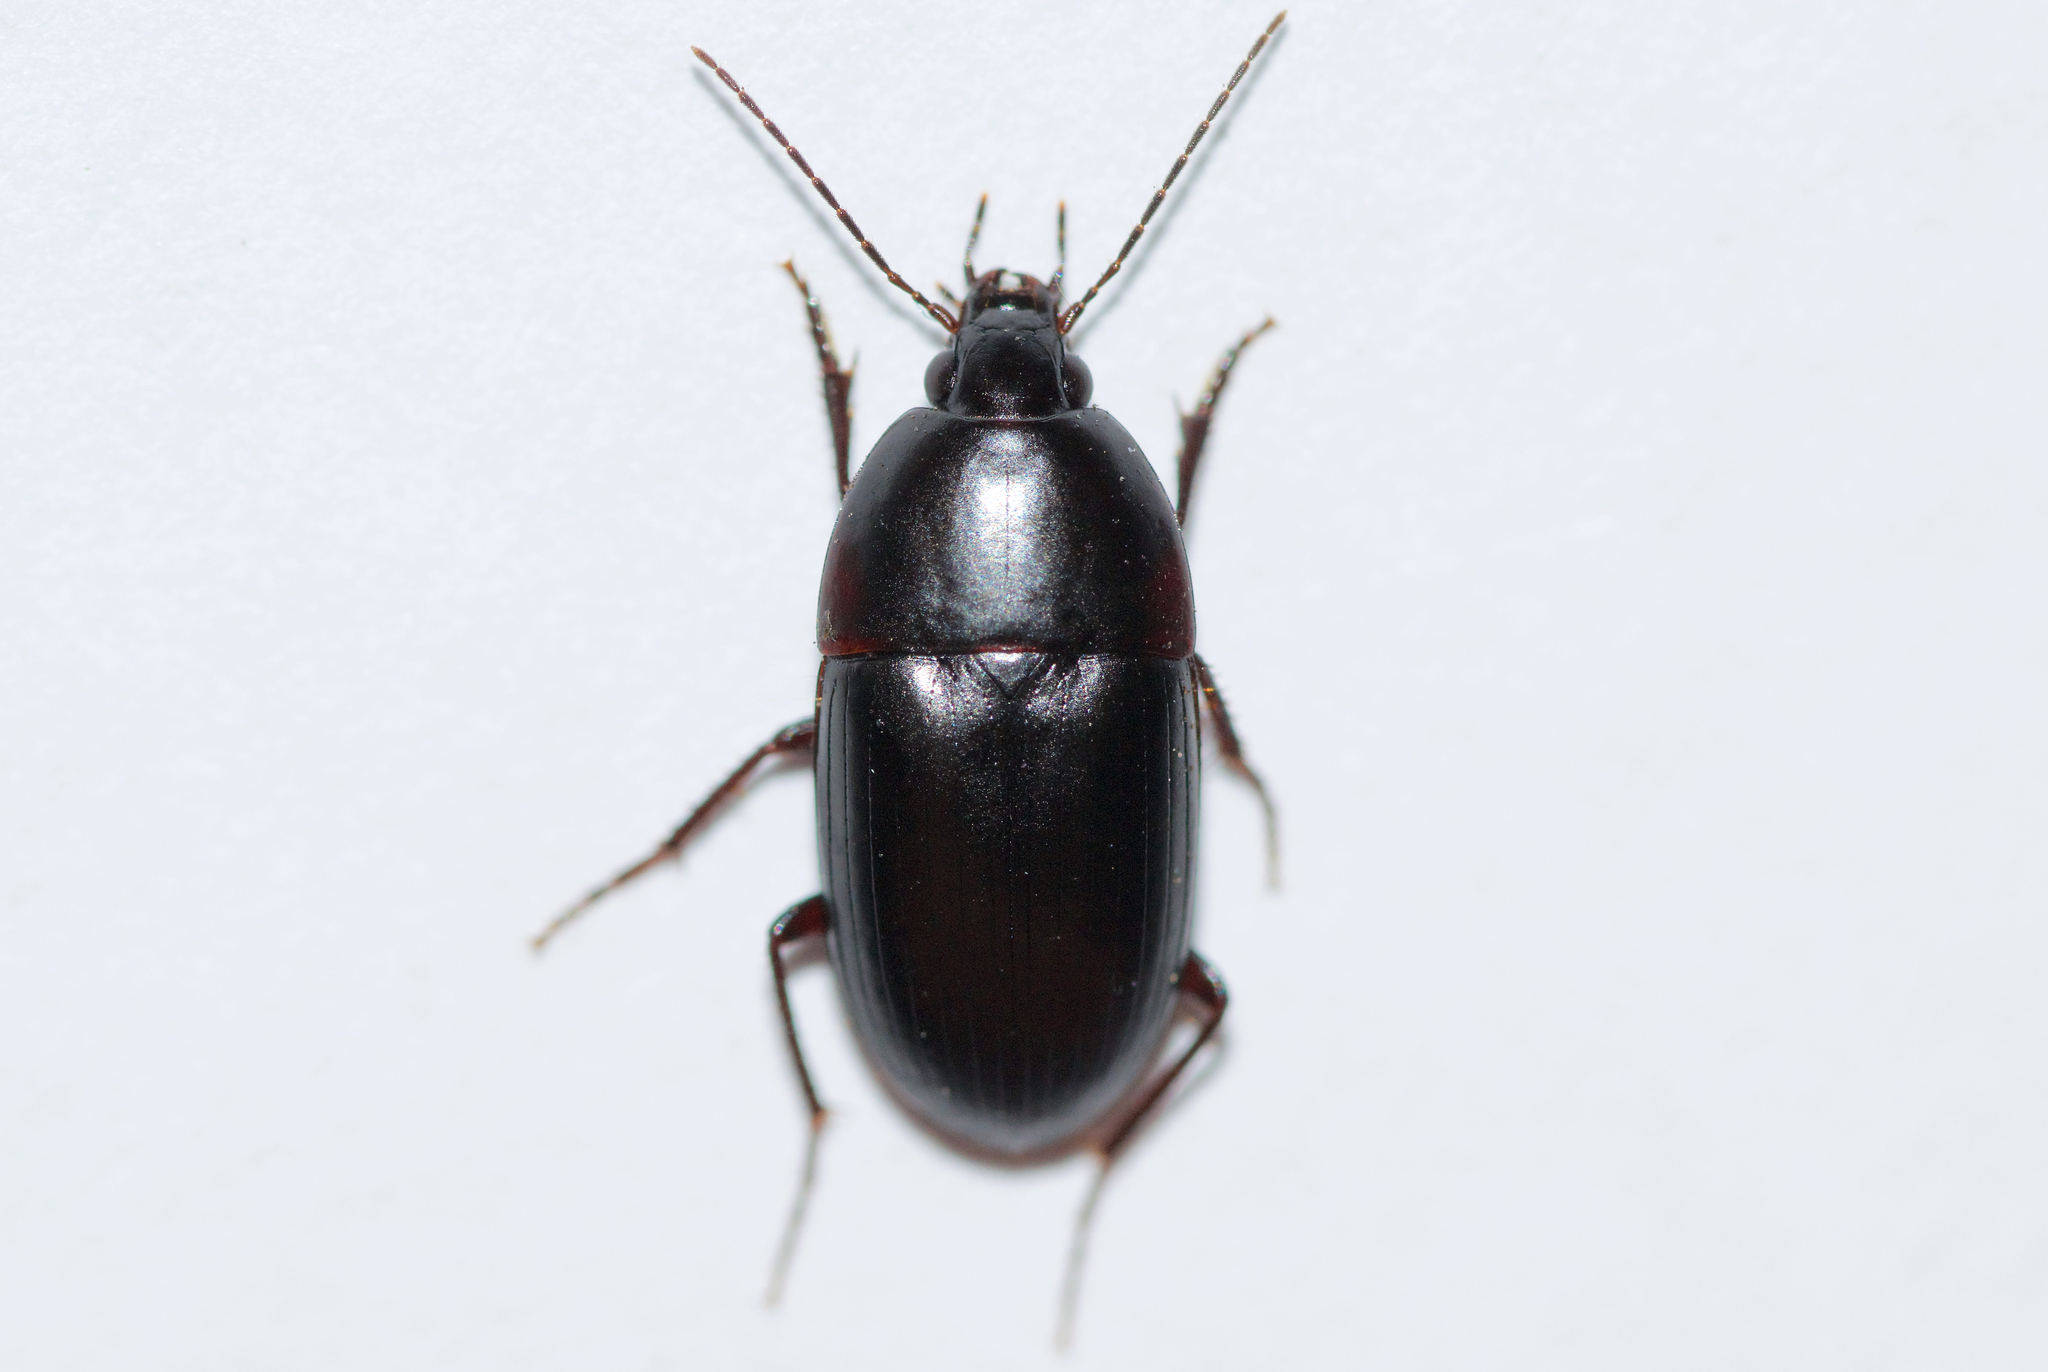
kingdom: Animalia
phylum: Arthropoda
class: Insecta
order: Coleoptera
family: Carabidae
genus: Oodes
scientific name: Oodes amaroides
